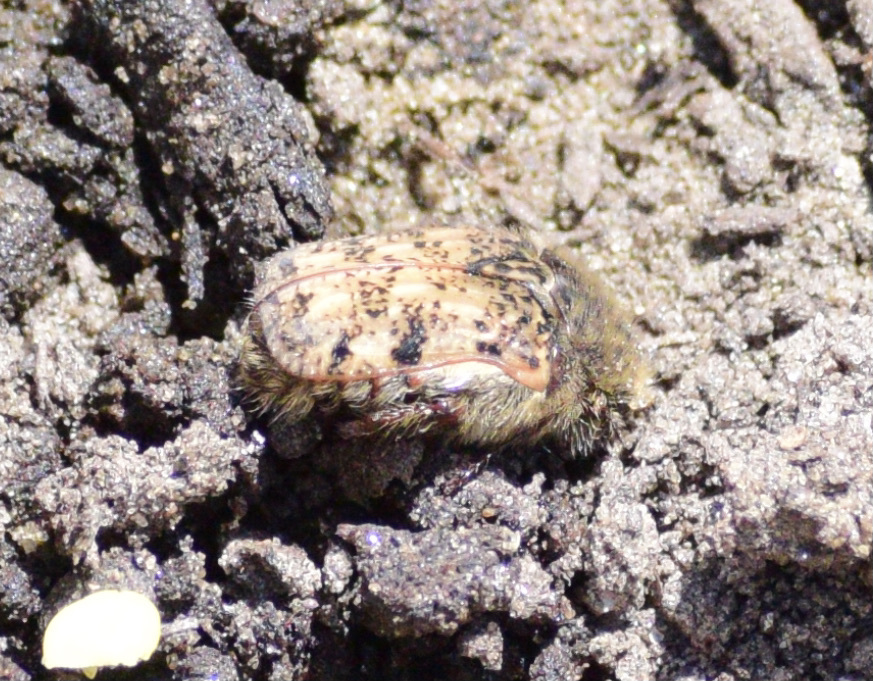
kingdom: Animalia
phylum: Arthropoda
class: Insecta
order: Coleoptera
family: Scarabaeidae
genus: Euphoria
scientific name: Euphoria inda
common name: Bumble flower beetle
